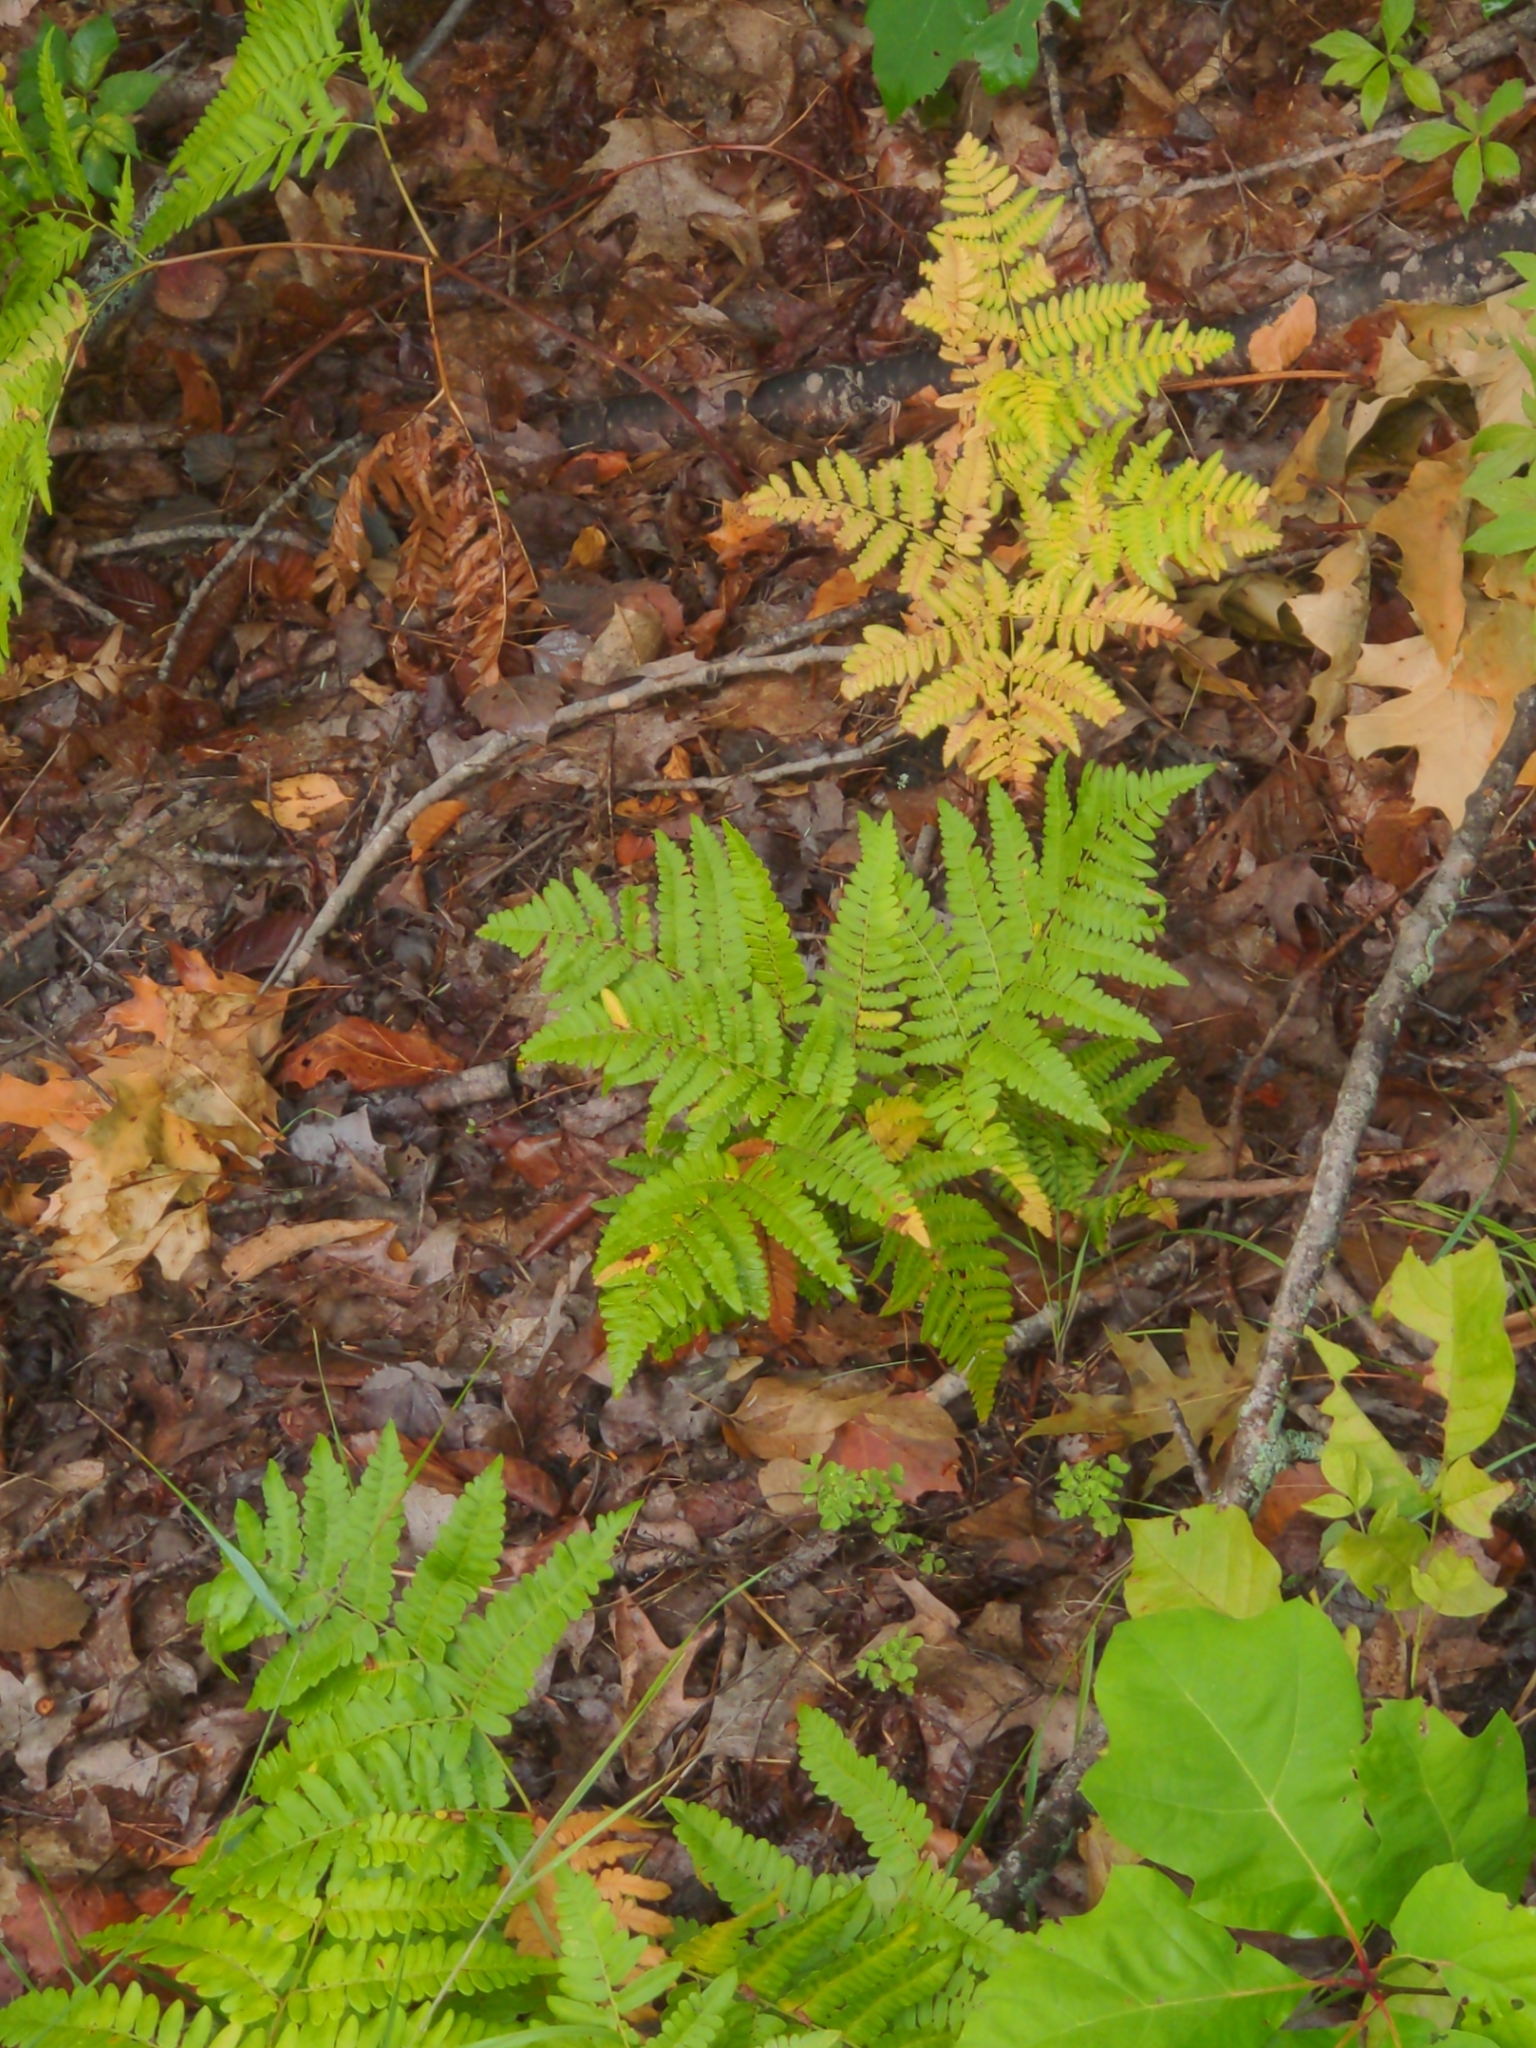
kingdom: Plantae
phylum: Tracheophyta
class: Polypodiopsida
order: Polypodiales
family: Dennstaedtiaceae
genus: Pteridium
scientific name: Pteridium aquilinum
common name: Bracken
